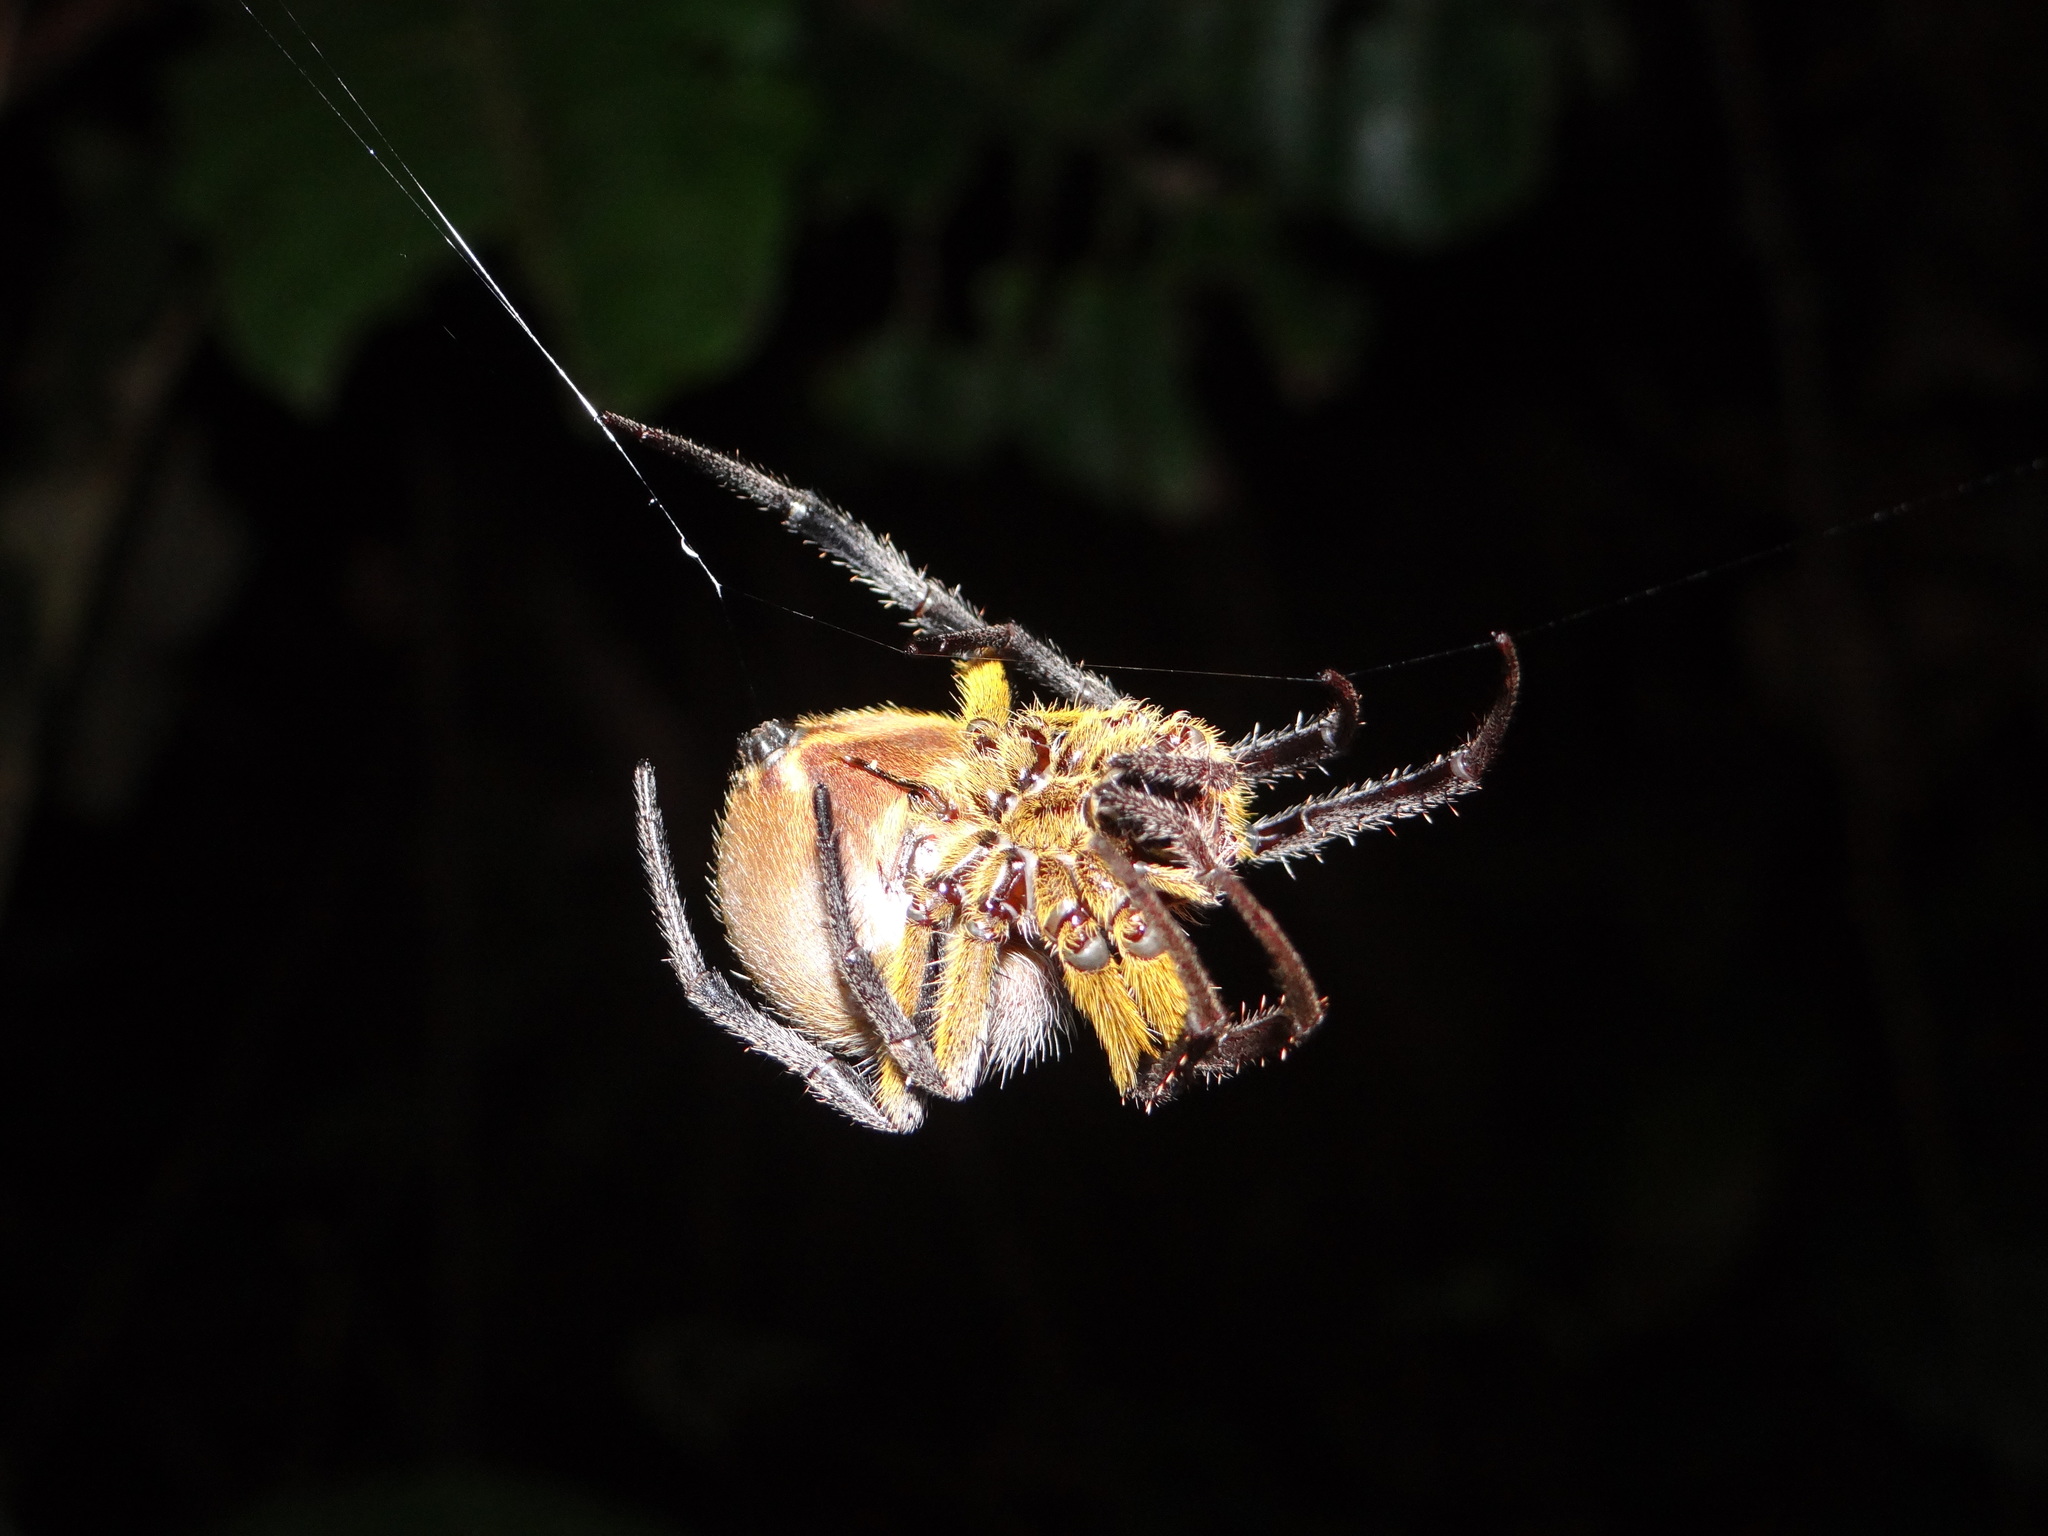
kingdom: Animalia
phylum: Arthropoda
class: Arachnida
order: Araneae
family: Araneidae
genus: Eriophora
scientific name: Eriophora ravilla
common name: Orb weavers
